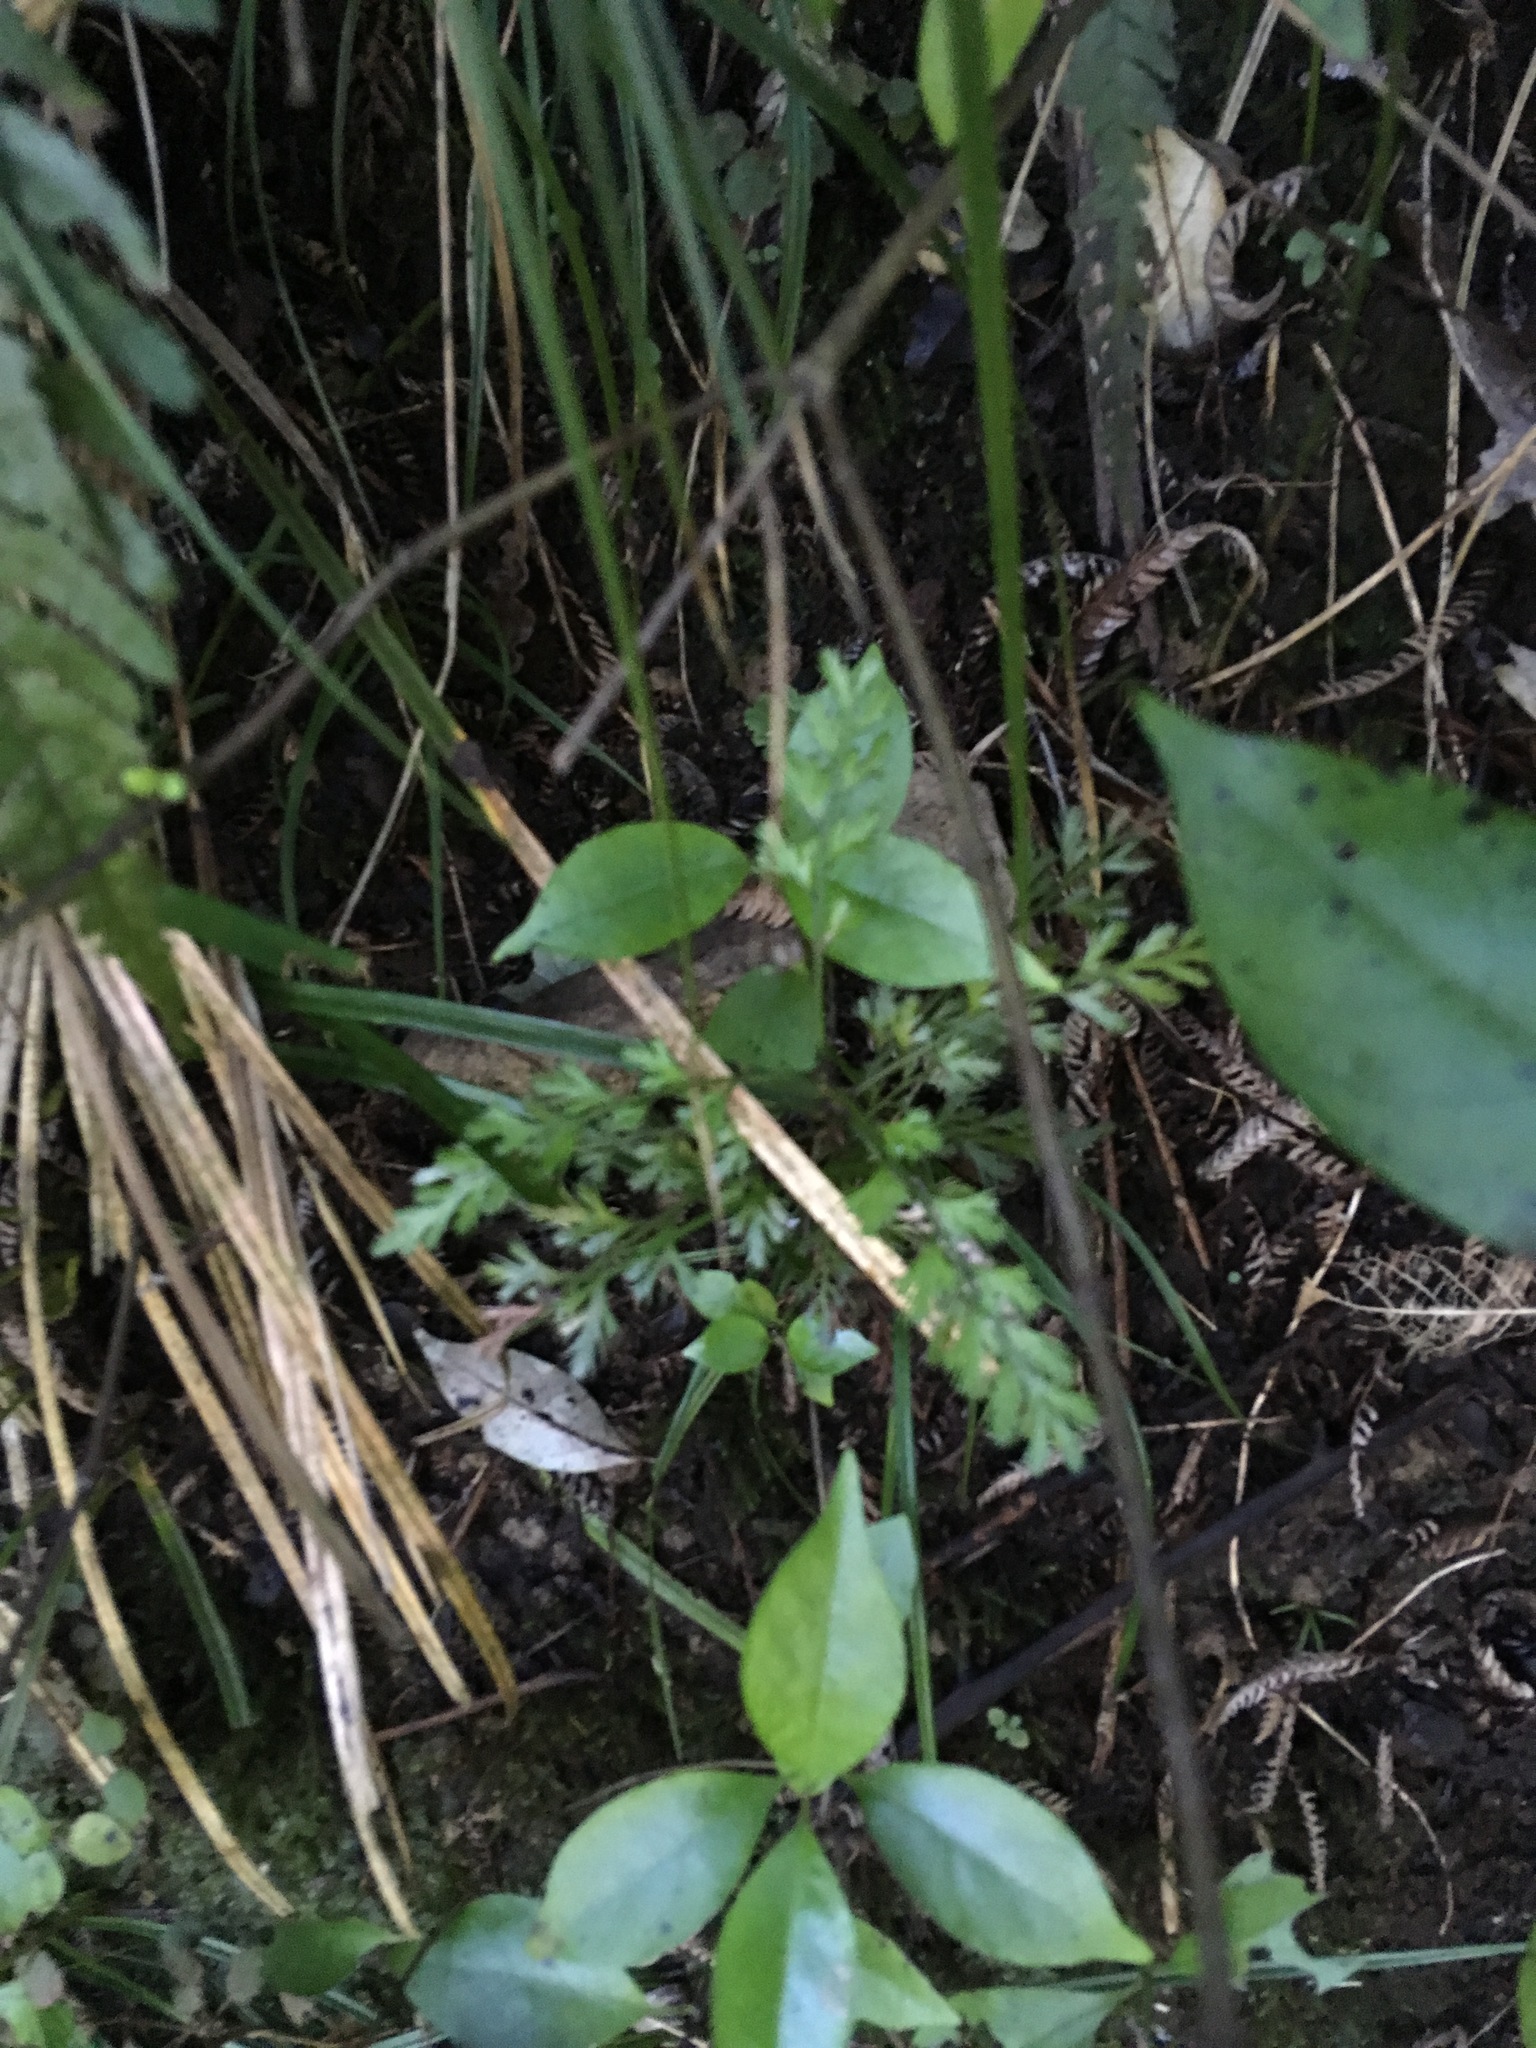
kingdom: Plantae
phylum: Tracheophyta
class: Pinopsida
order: Pinales
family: Phyllocladaceae
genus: Phyllocladus
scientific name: Phyllocladus trichomanoides
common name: Celery pine
